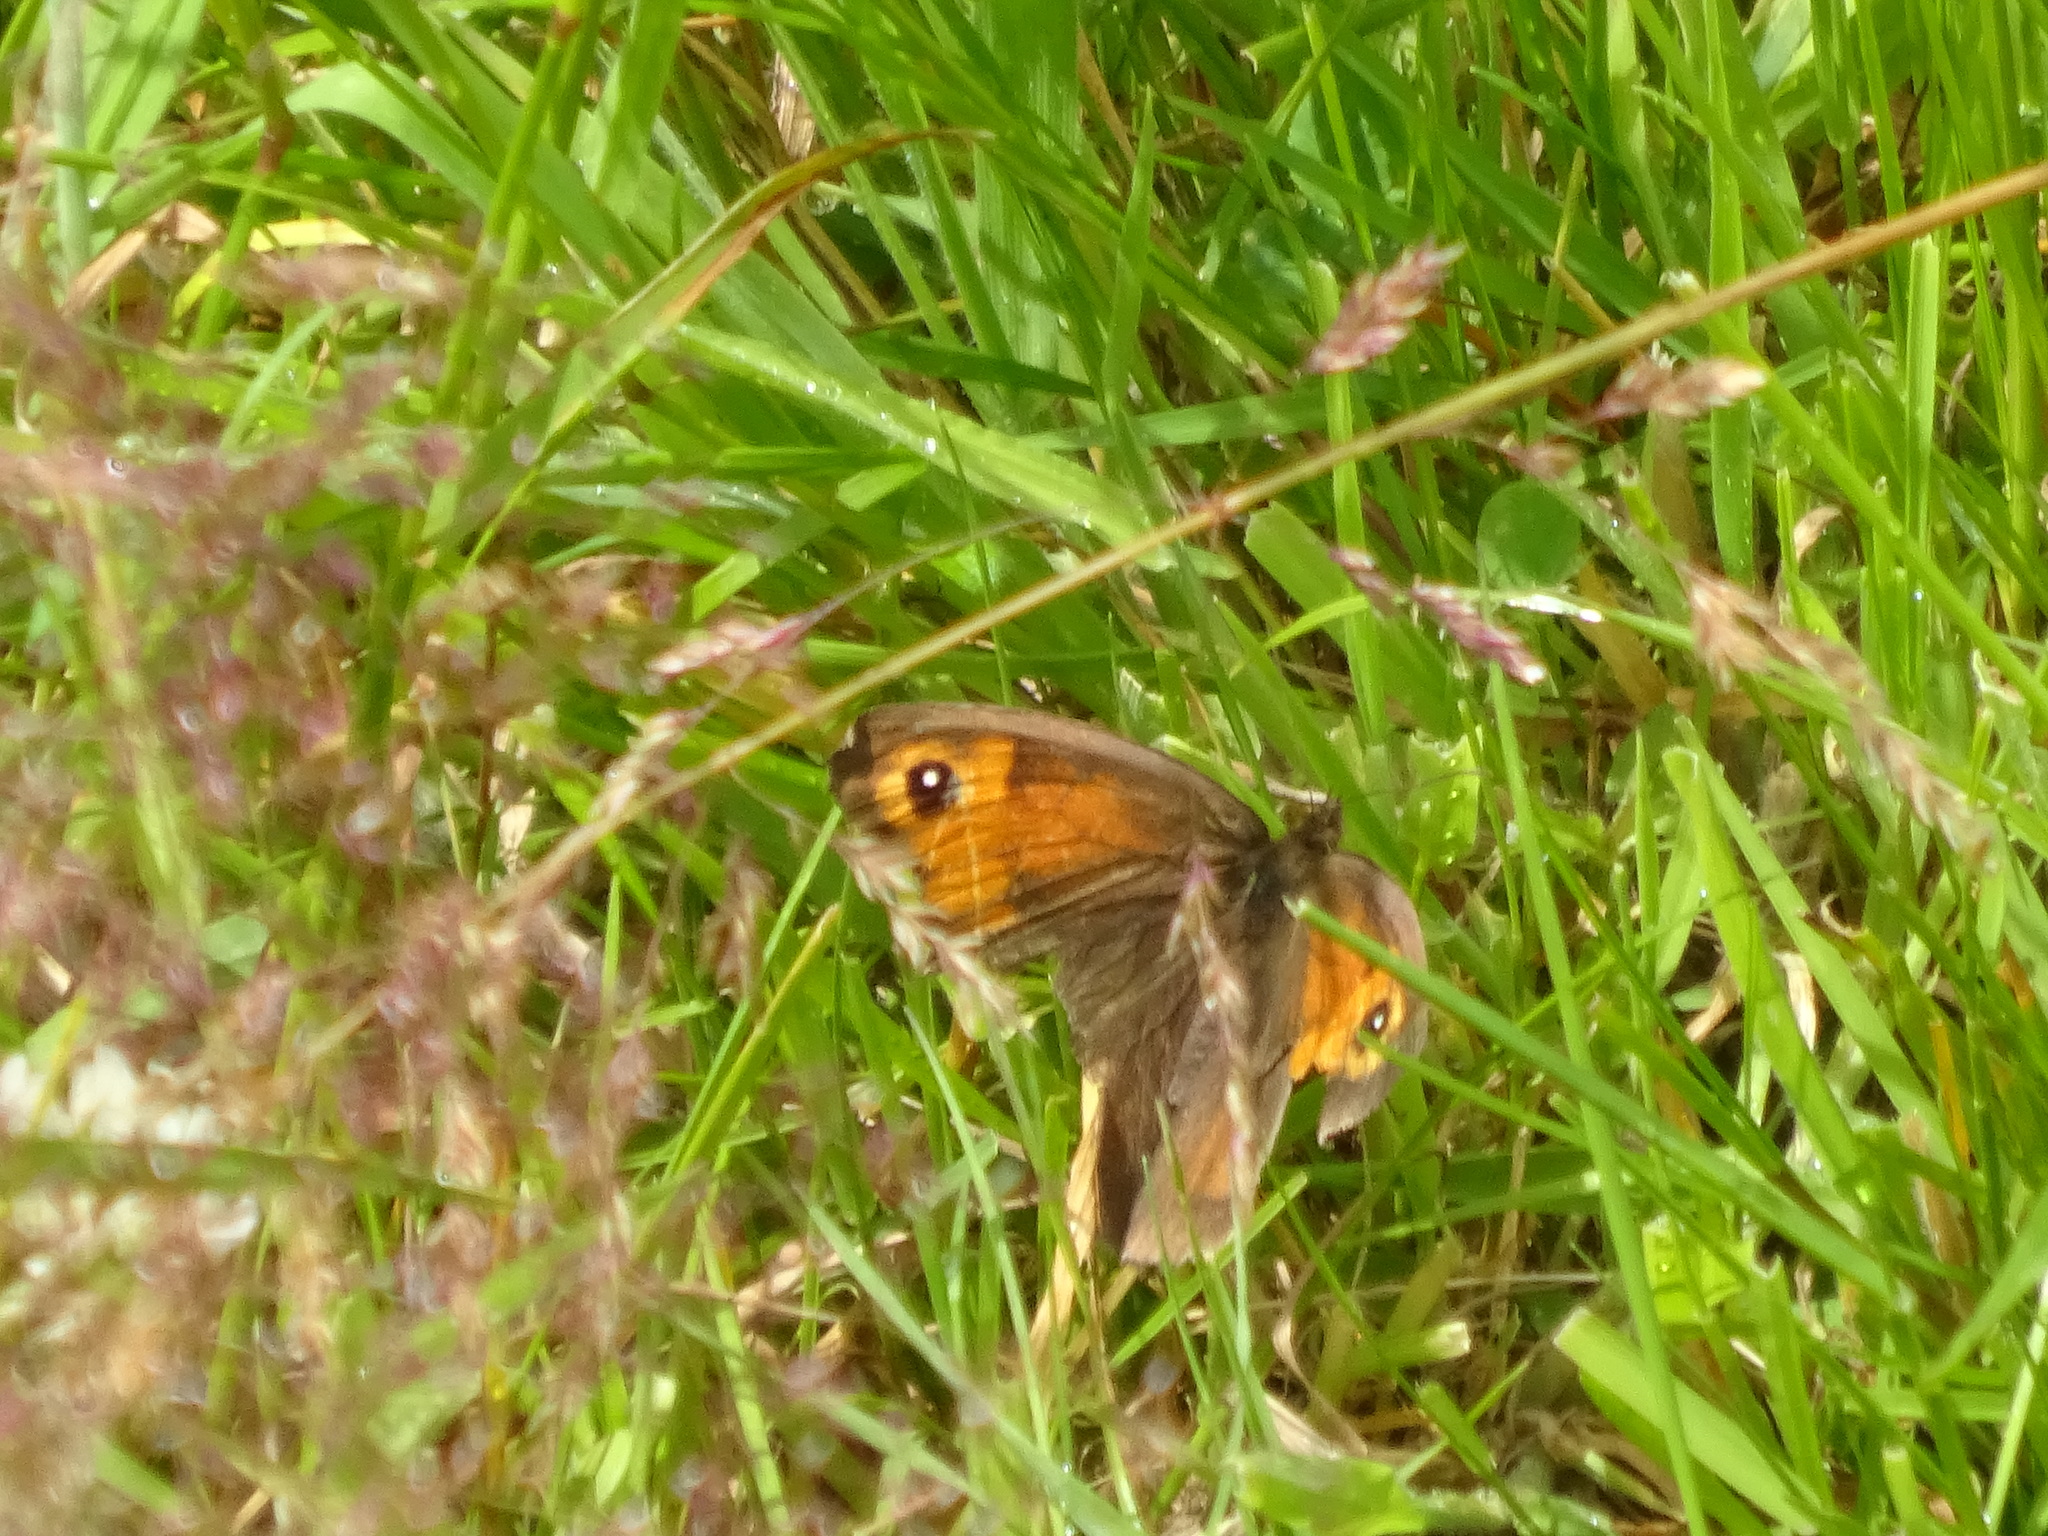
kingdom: Animalia
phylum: Arthropoda
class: Insecta
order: Lepidoptera
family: Nymphalidae
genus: Maniola
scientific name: Maniola jurtina
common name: Meadow brown
